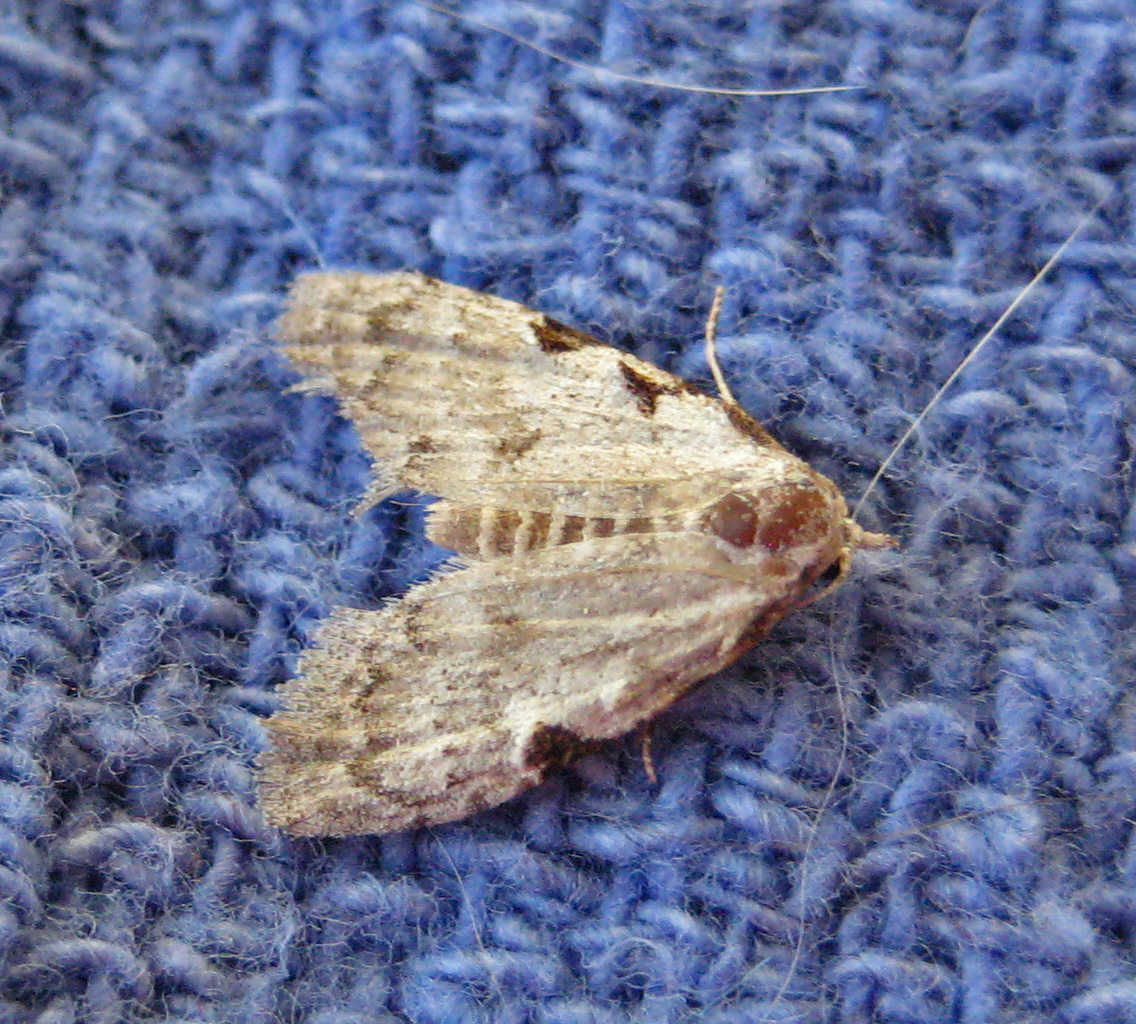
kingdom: Animalia
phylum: Arthropoda
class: Insecta
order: Lepidoptera
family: Nolidae
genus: Nola
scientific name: Nola triquetrana
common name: Three-spotted nola moth
